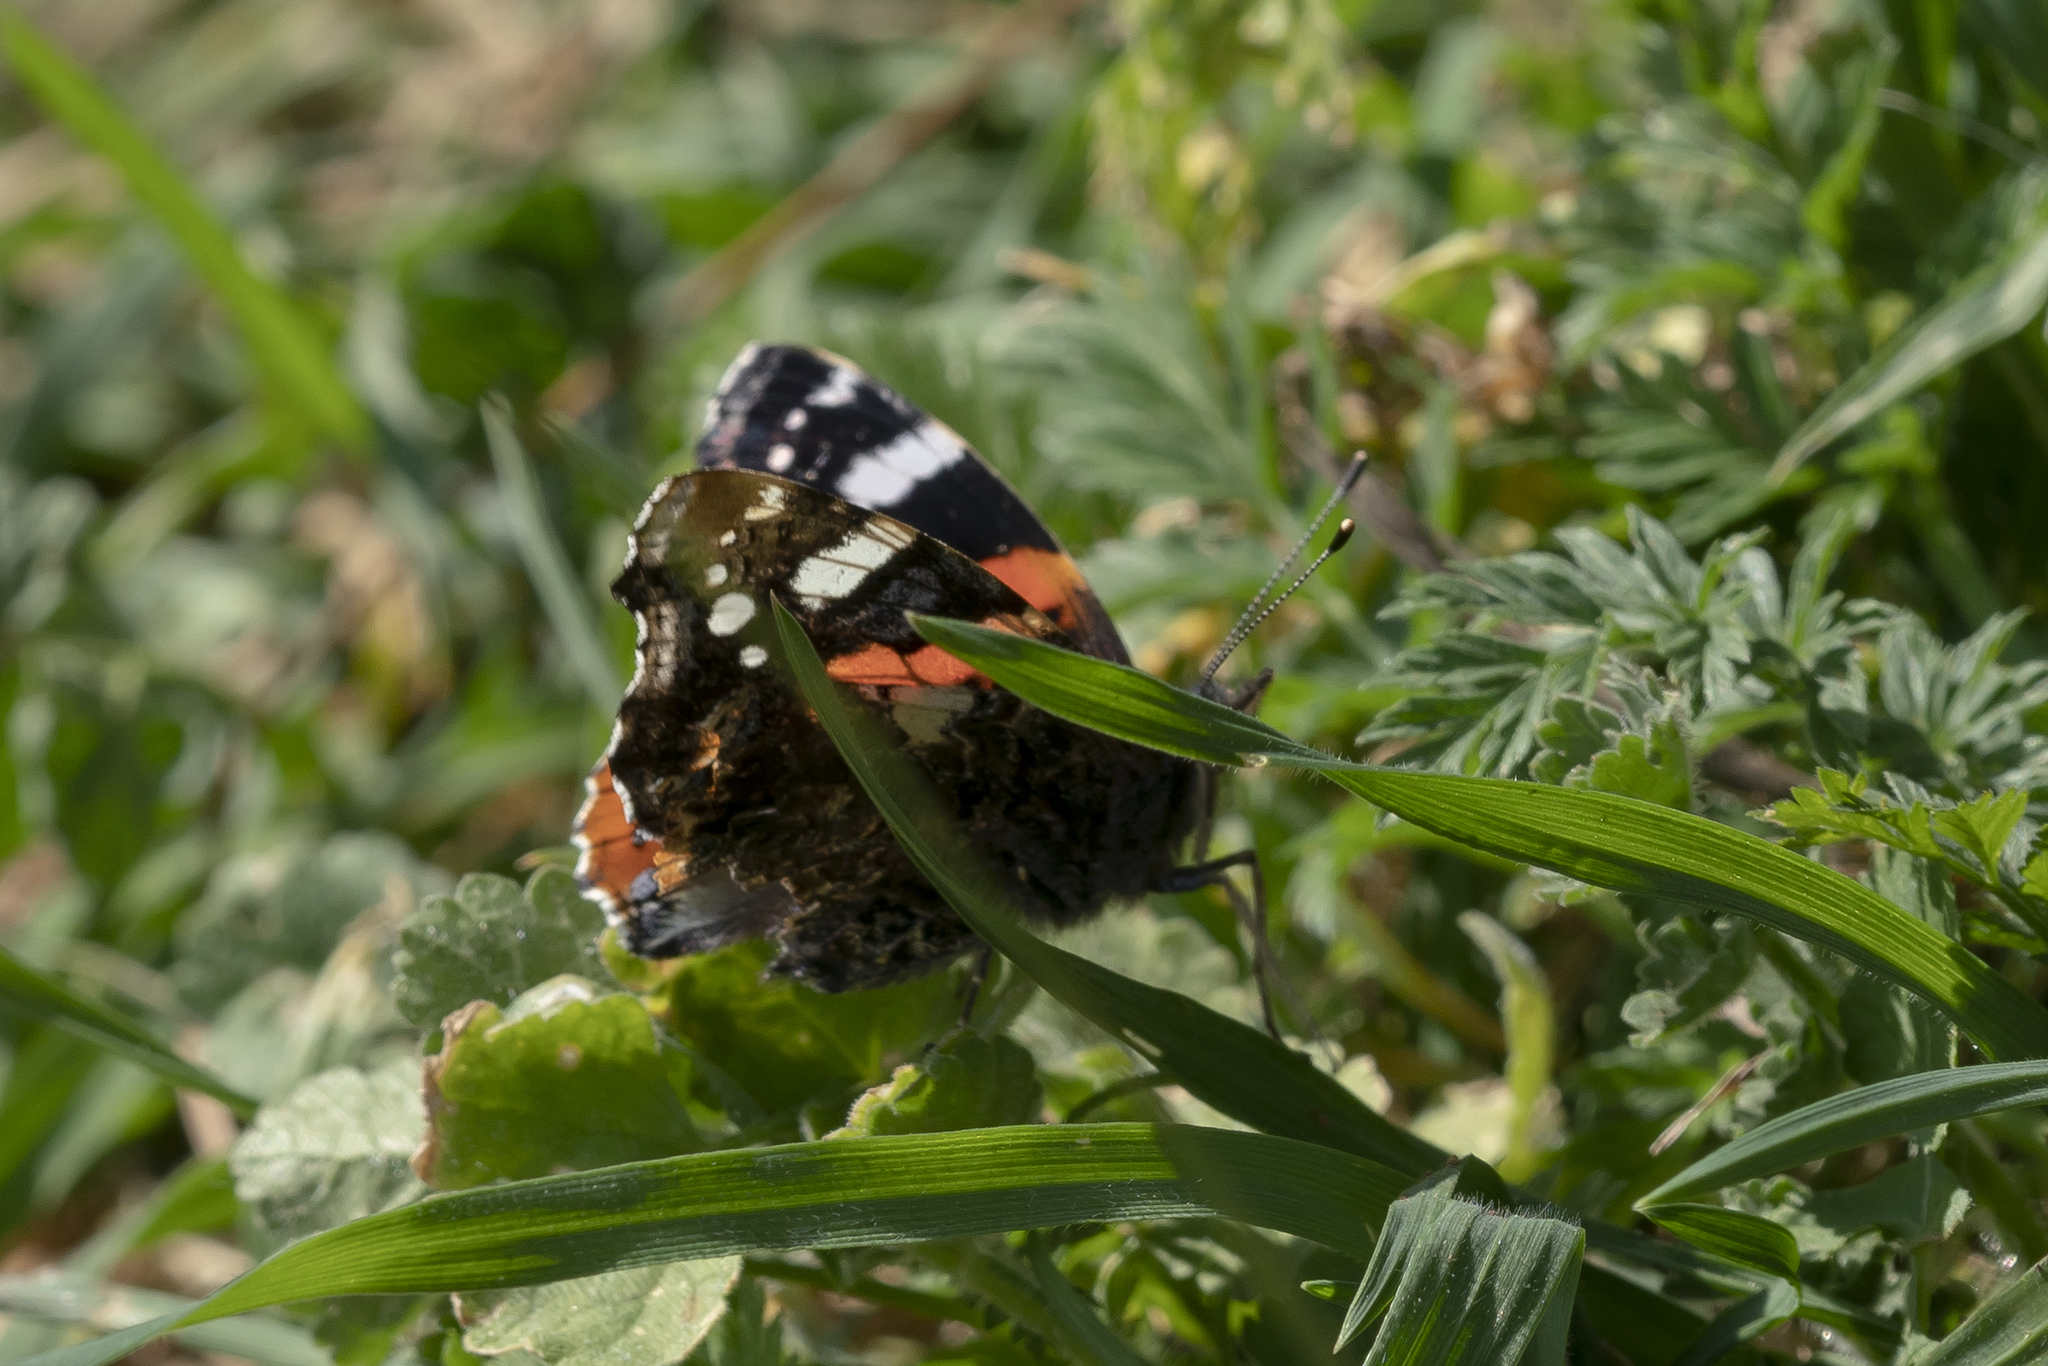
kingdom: Animalia
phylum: Arthropoda
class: Insecta
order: Lepidoptera
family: Nymphalidae
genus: Vanessa
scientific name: Vanessa atalanta
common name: Red admiral
